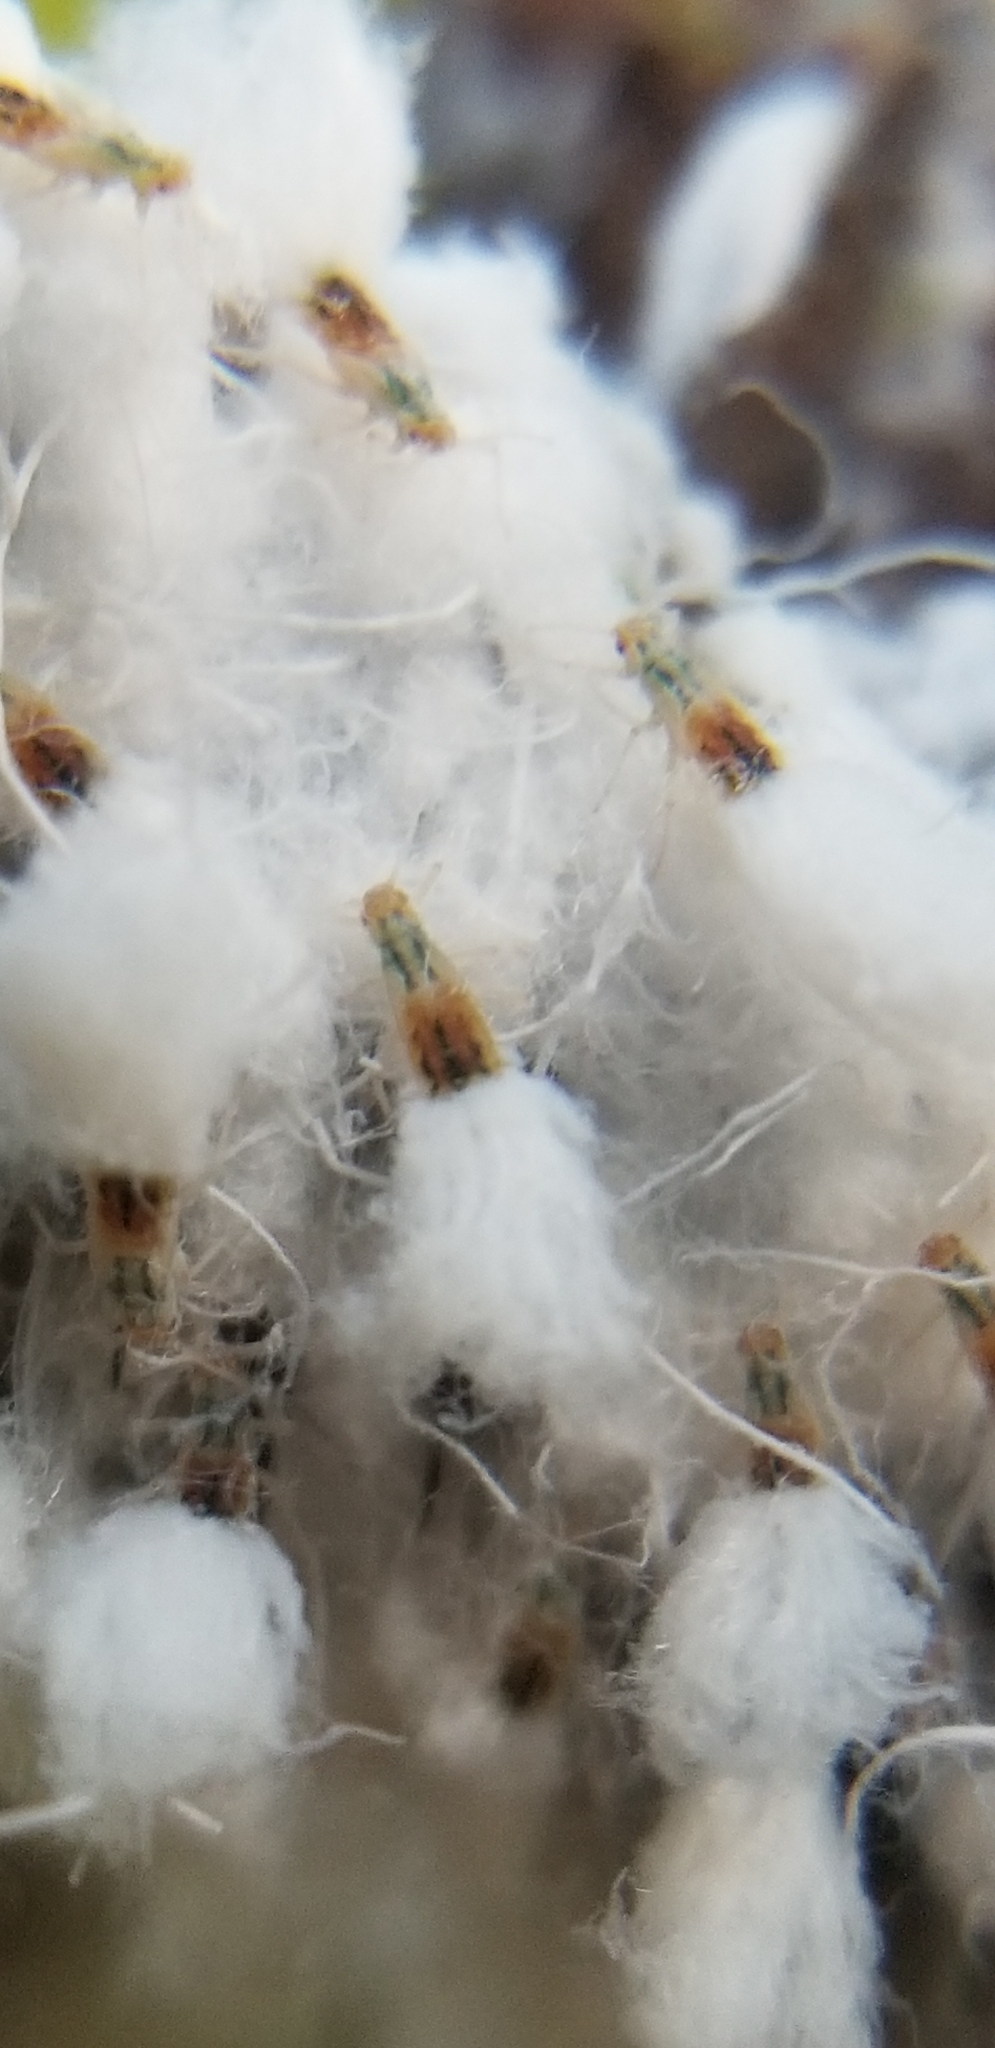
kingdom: Animalia
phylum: Arthropoda
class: Insecta
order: Hemiptera
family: Aphididae
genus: Grylloprociphilus
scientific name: Grylloprociphilus imbricator
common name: Beech blight aphid
